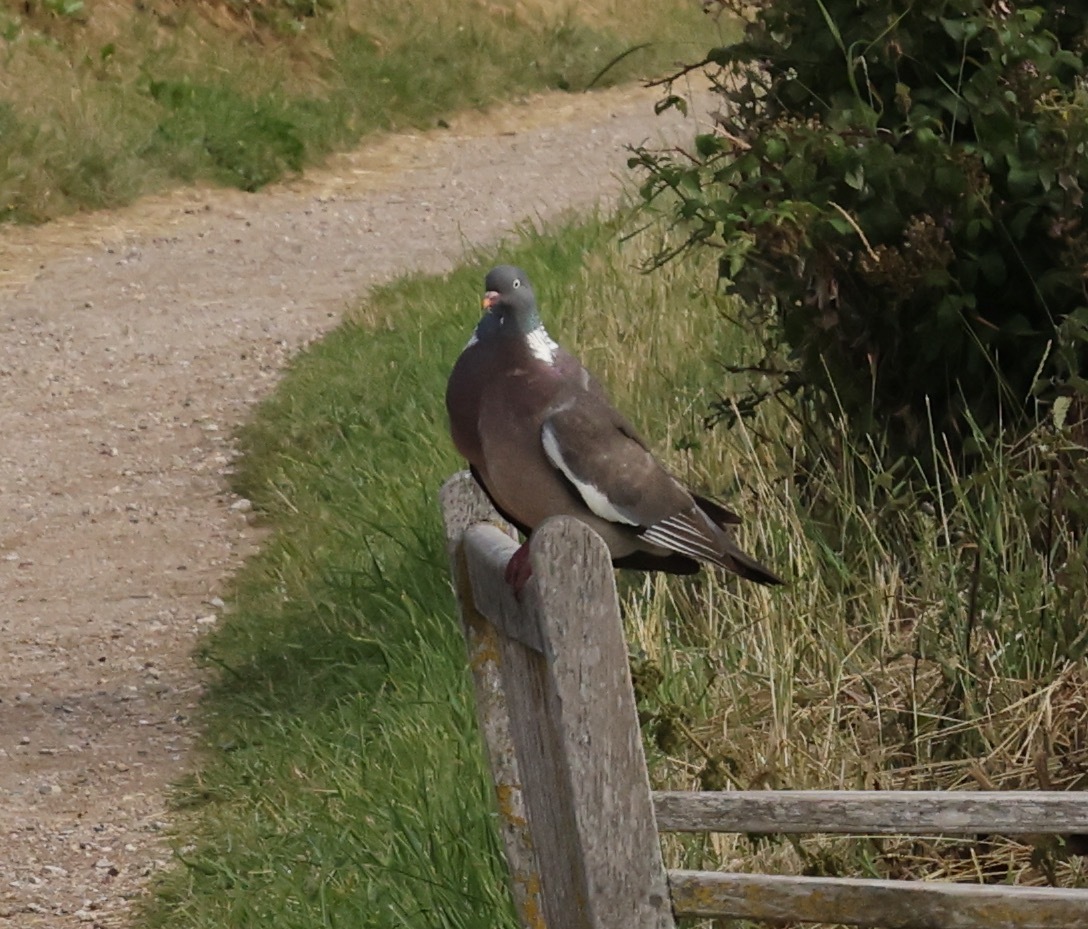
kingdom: Animalia
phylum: Chordata
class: Aves
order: Columbiformes
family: Columbidae
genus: Columba
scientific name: Columba palumbus
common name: Common wood pigeon
